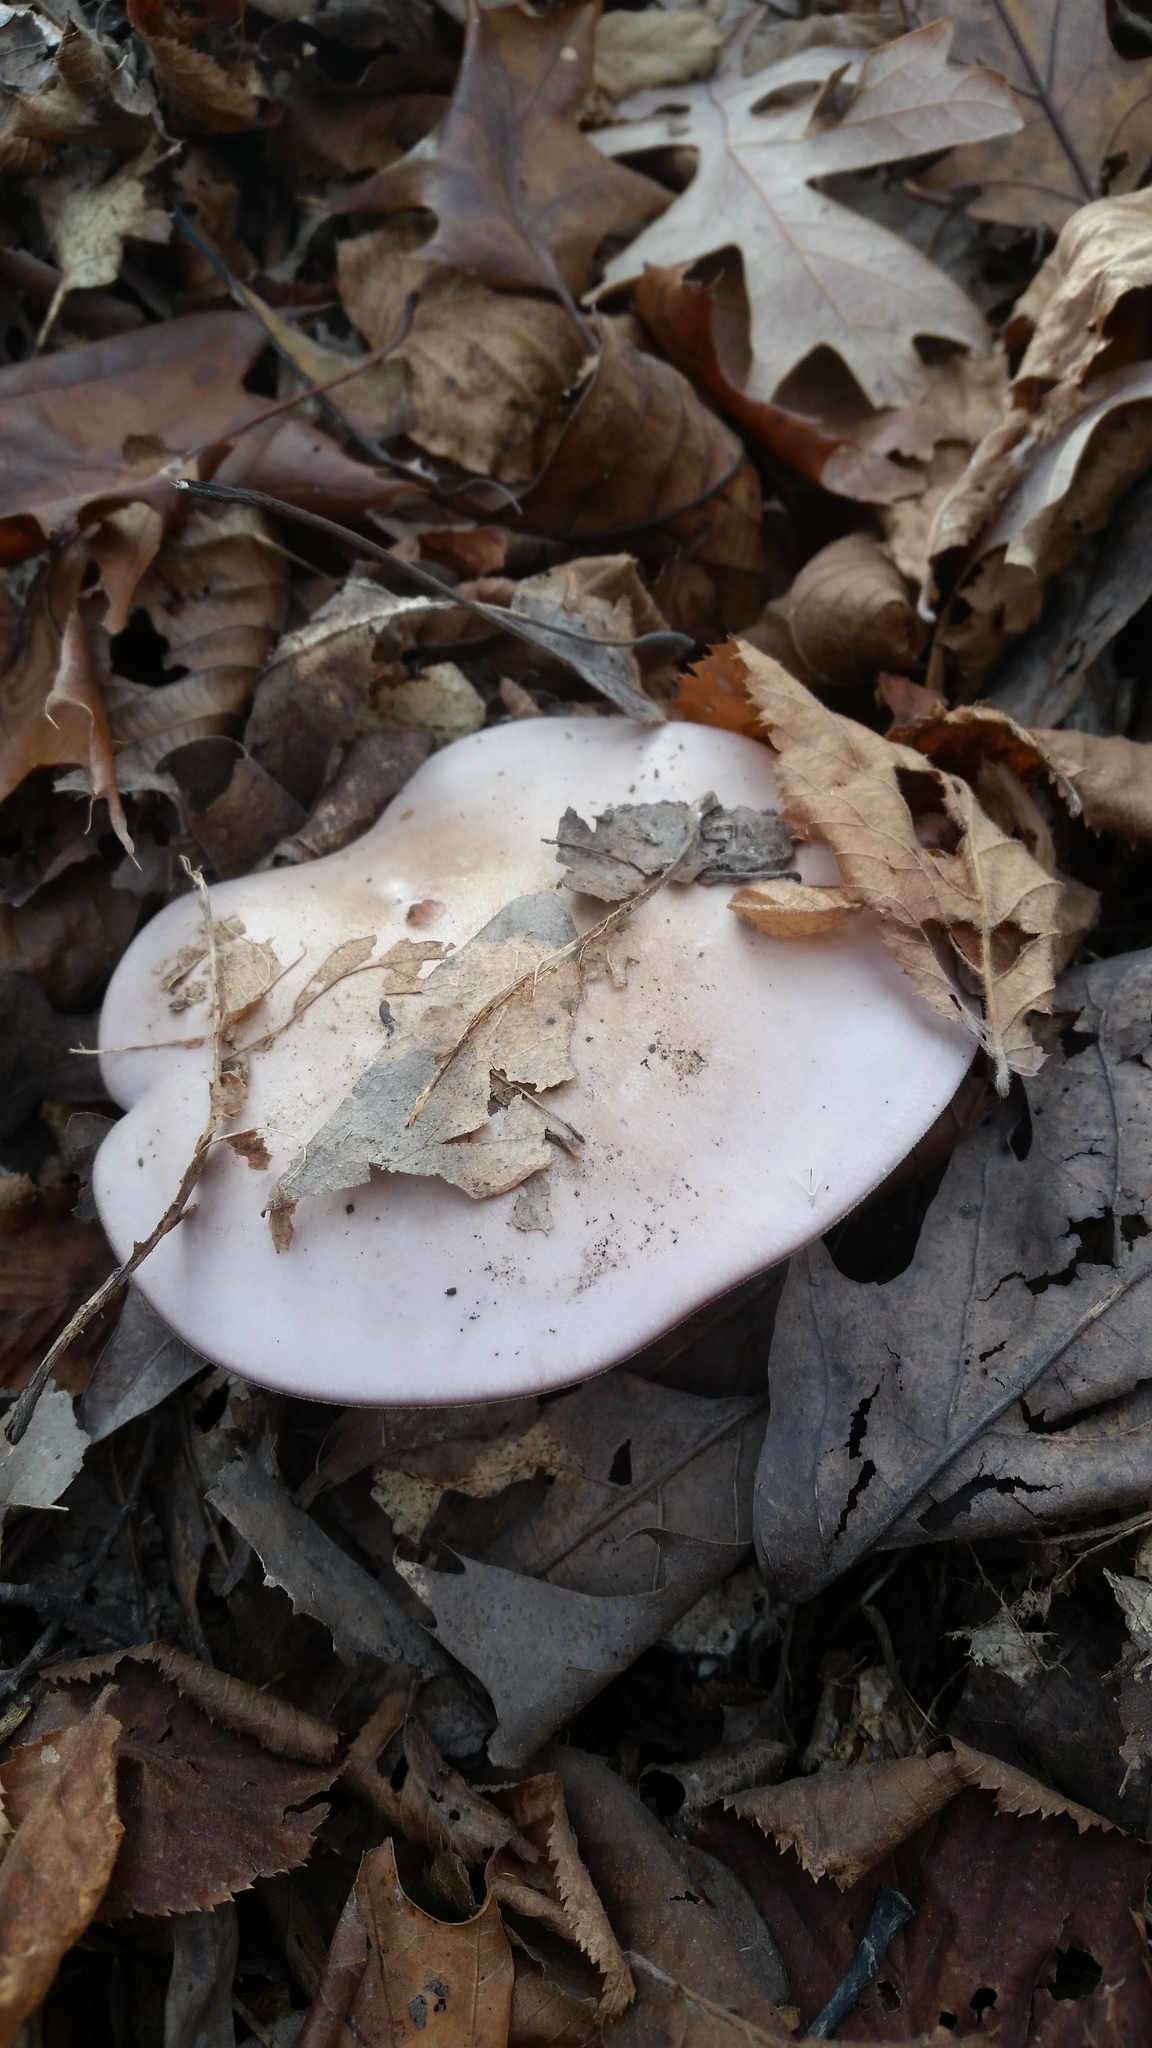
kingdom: Fungi
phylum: Basidiomycota
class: Agaricomycetes
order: Agaricales
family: Tricholomataceae
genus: Collybia
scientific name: Collybia
